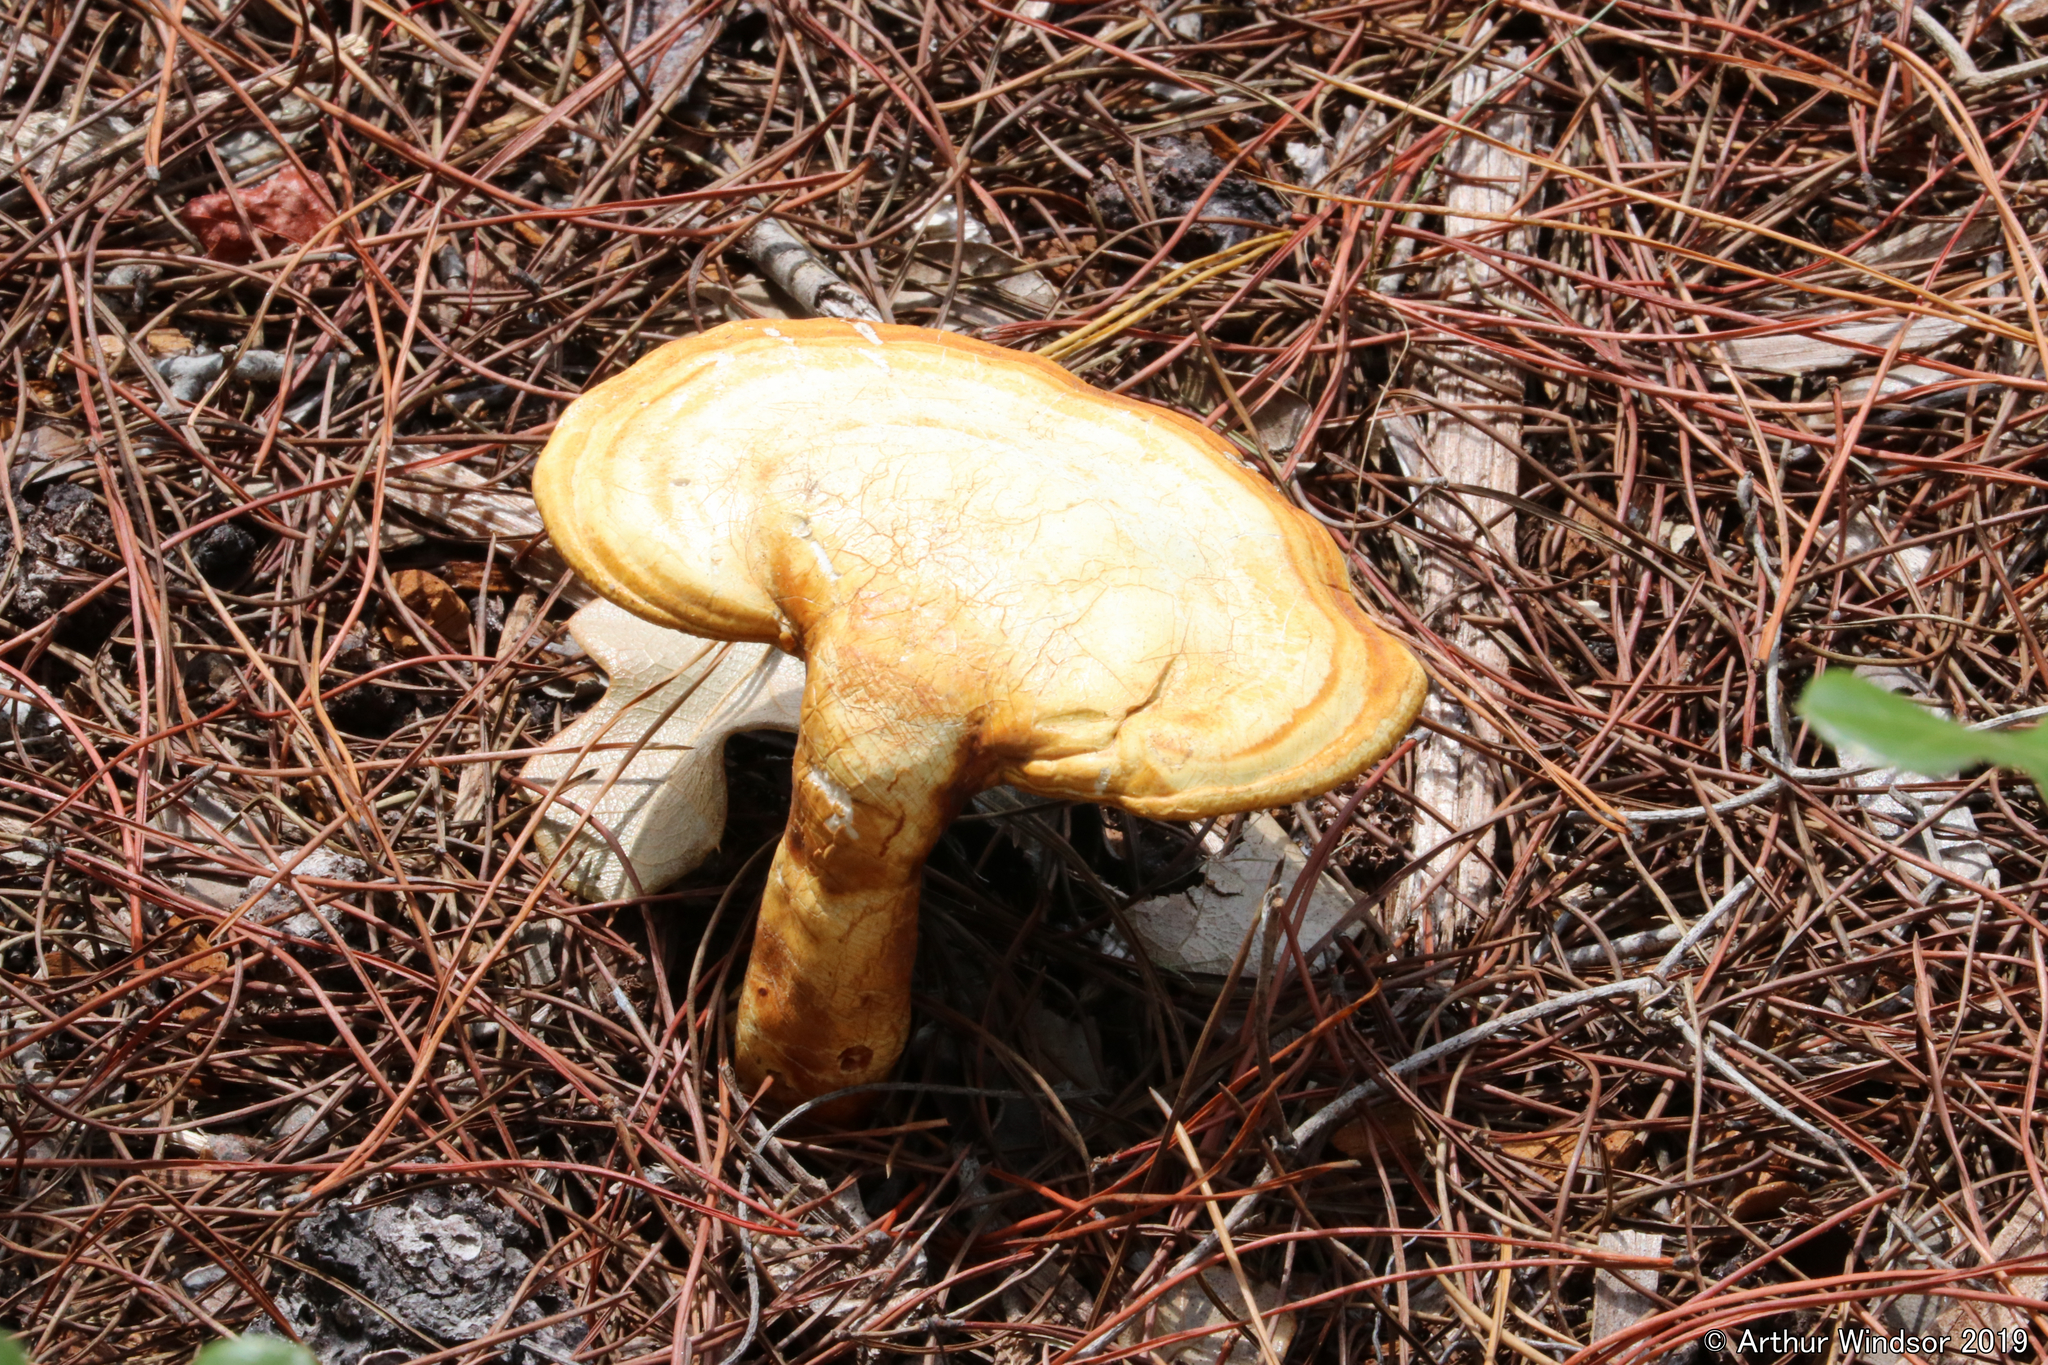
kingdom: Fungi
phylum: Basidiomycota
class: Agaricomycetes
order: Polyporales
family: Polyporaceae
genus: Ganoderma
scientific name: Ganoderma curtisii
